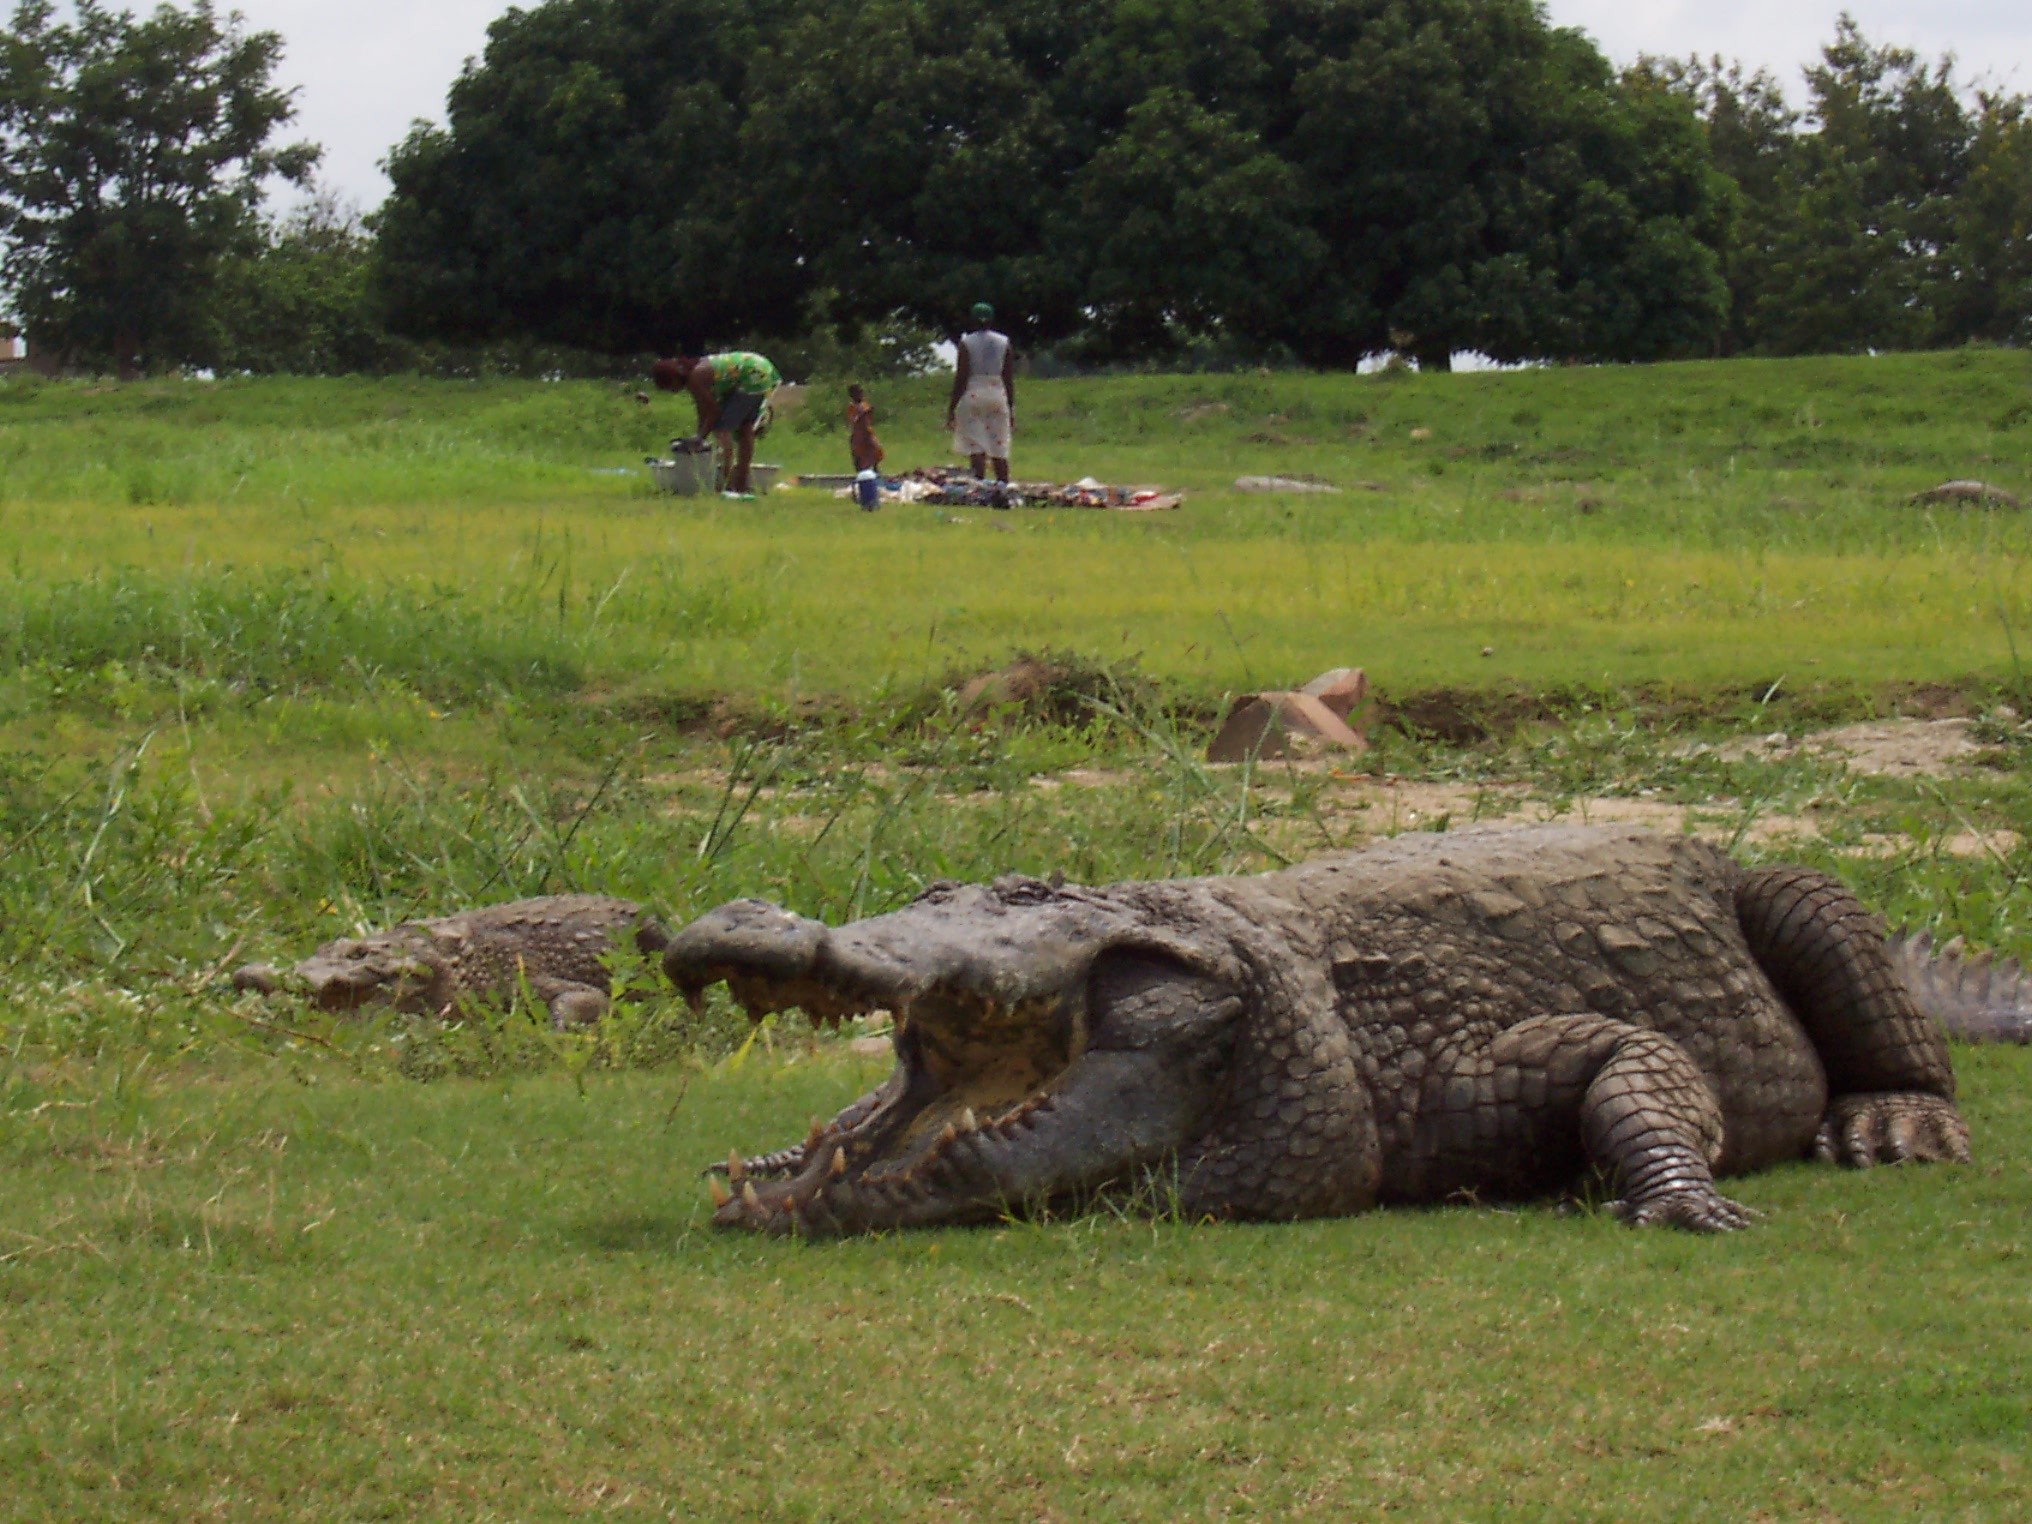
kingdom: Animalia
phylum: Chordata
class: Crocodylia
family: Crocodylidae
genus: Crocodylus
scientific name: Crocodylus suchus
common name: West african crocodile
